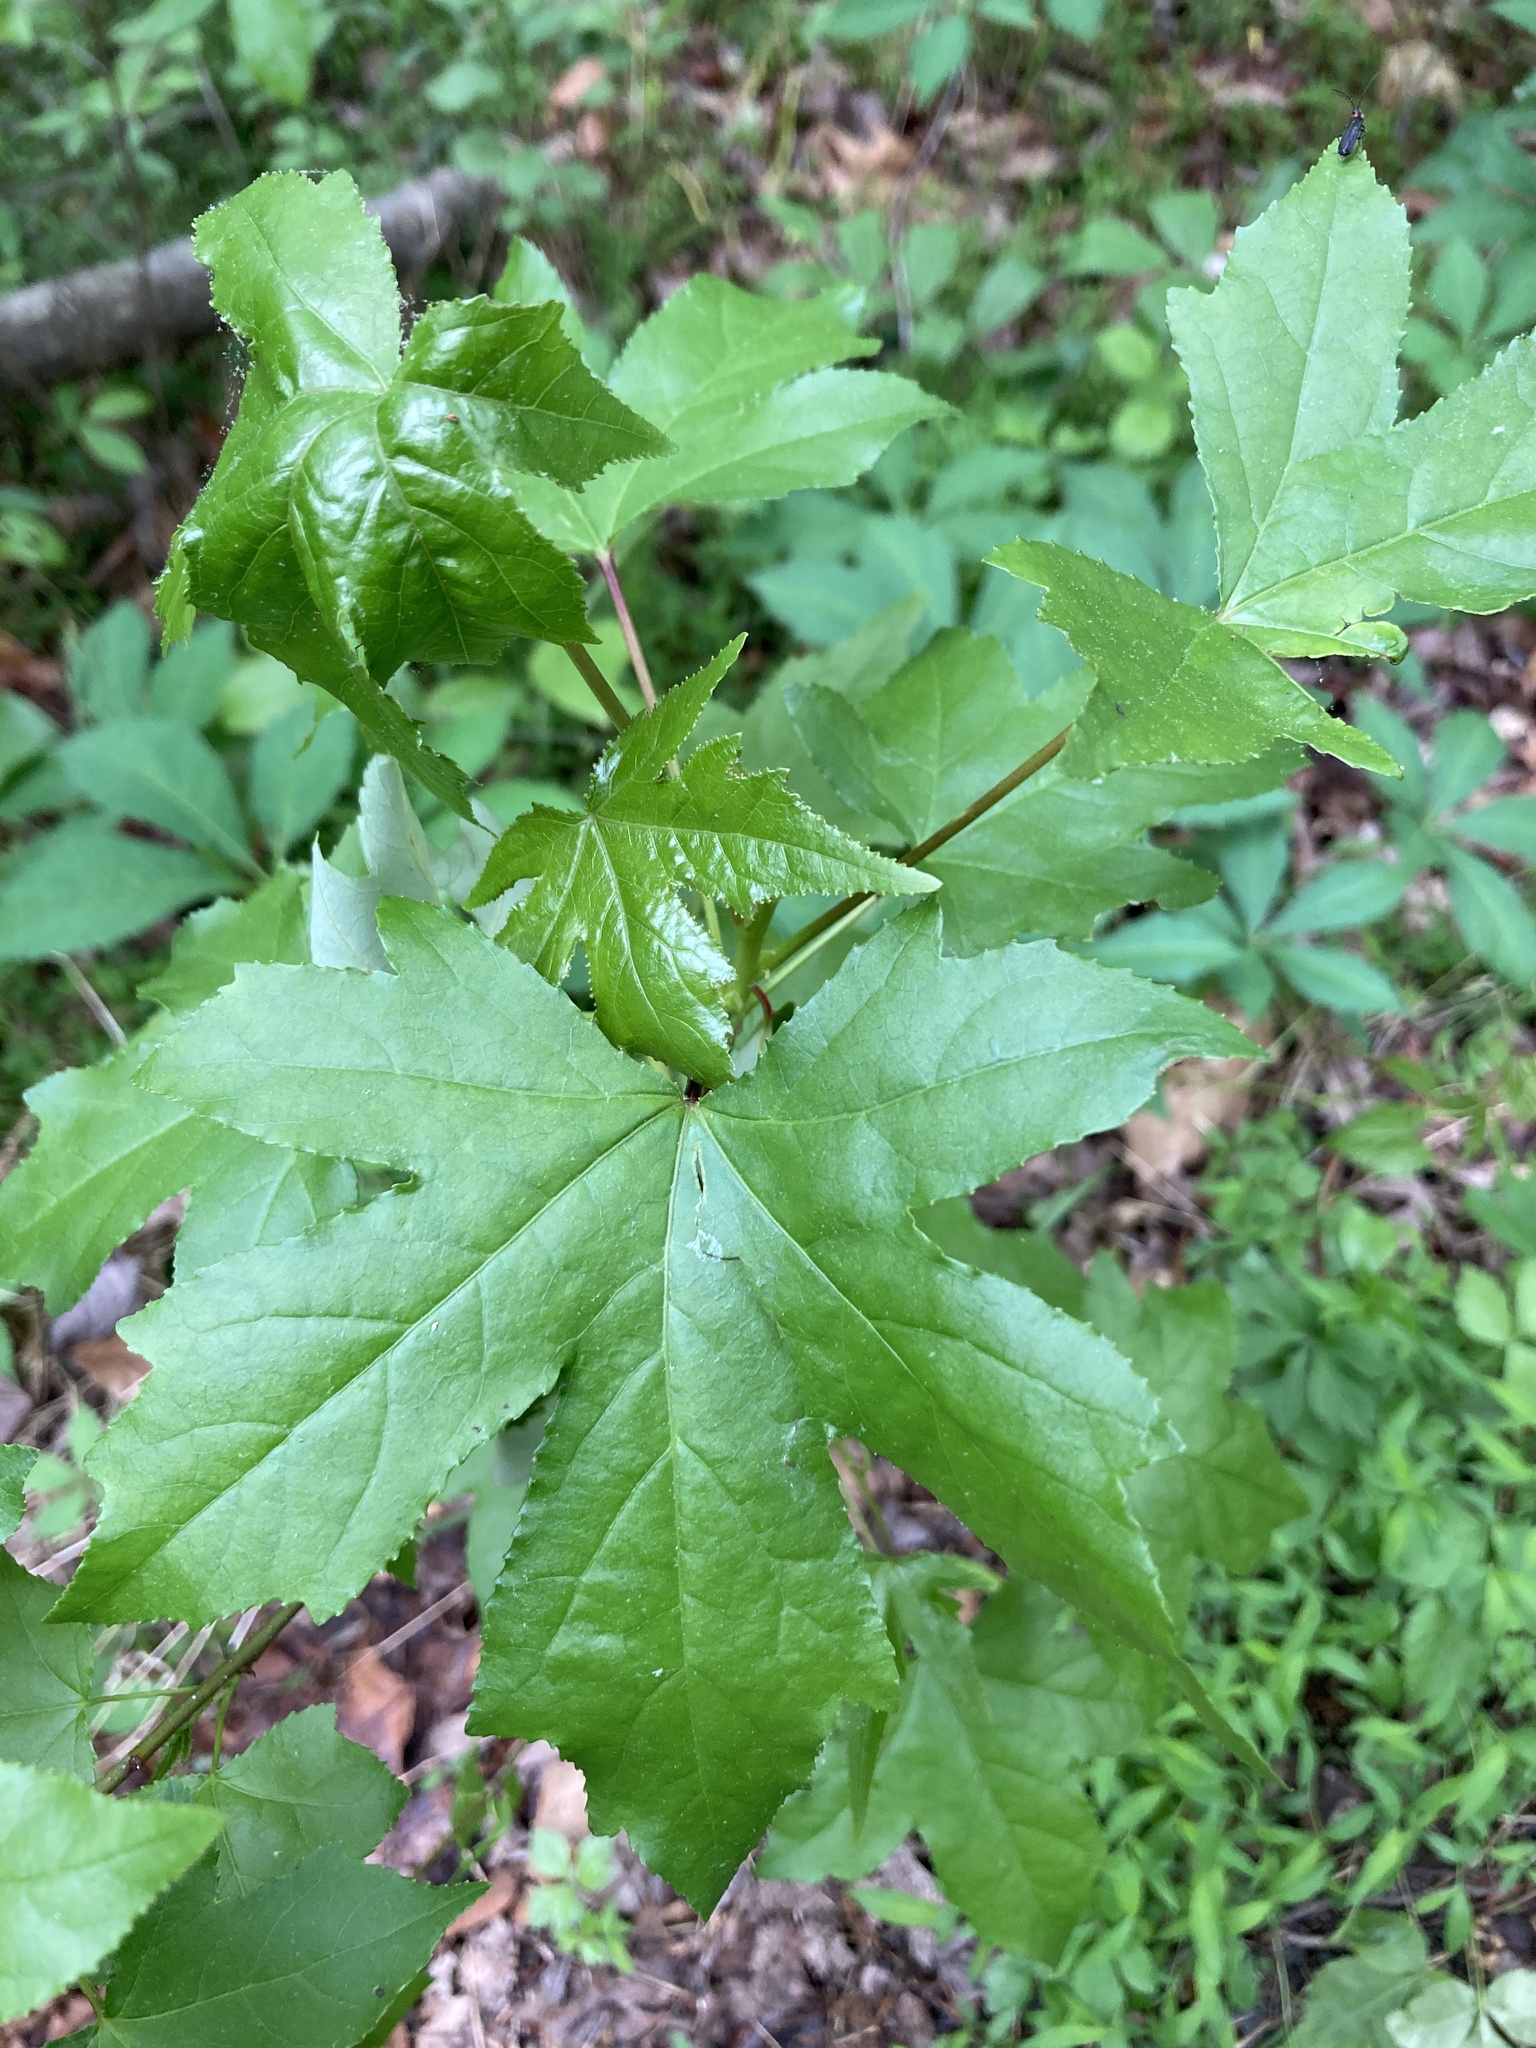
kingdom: Plantae
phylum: Tracheophyta
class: Magnoliopsida
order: Saxifragales
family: Altingiaceae
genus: Liquidambar
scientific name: Liquidambar styraciflua
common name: Sweet gum
